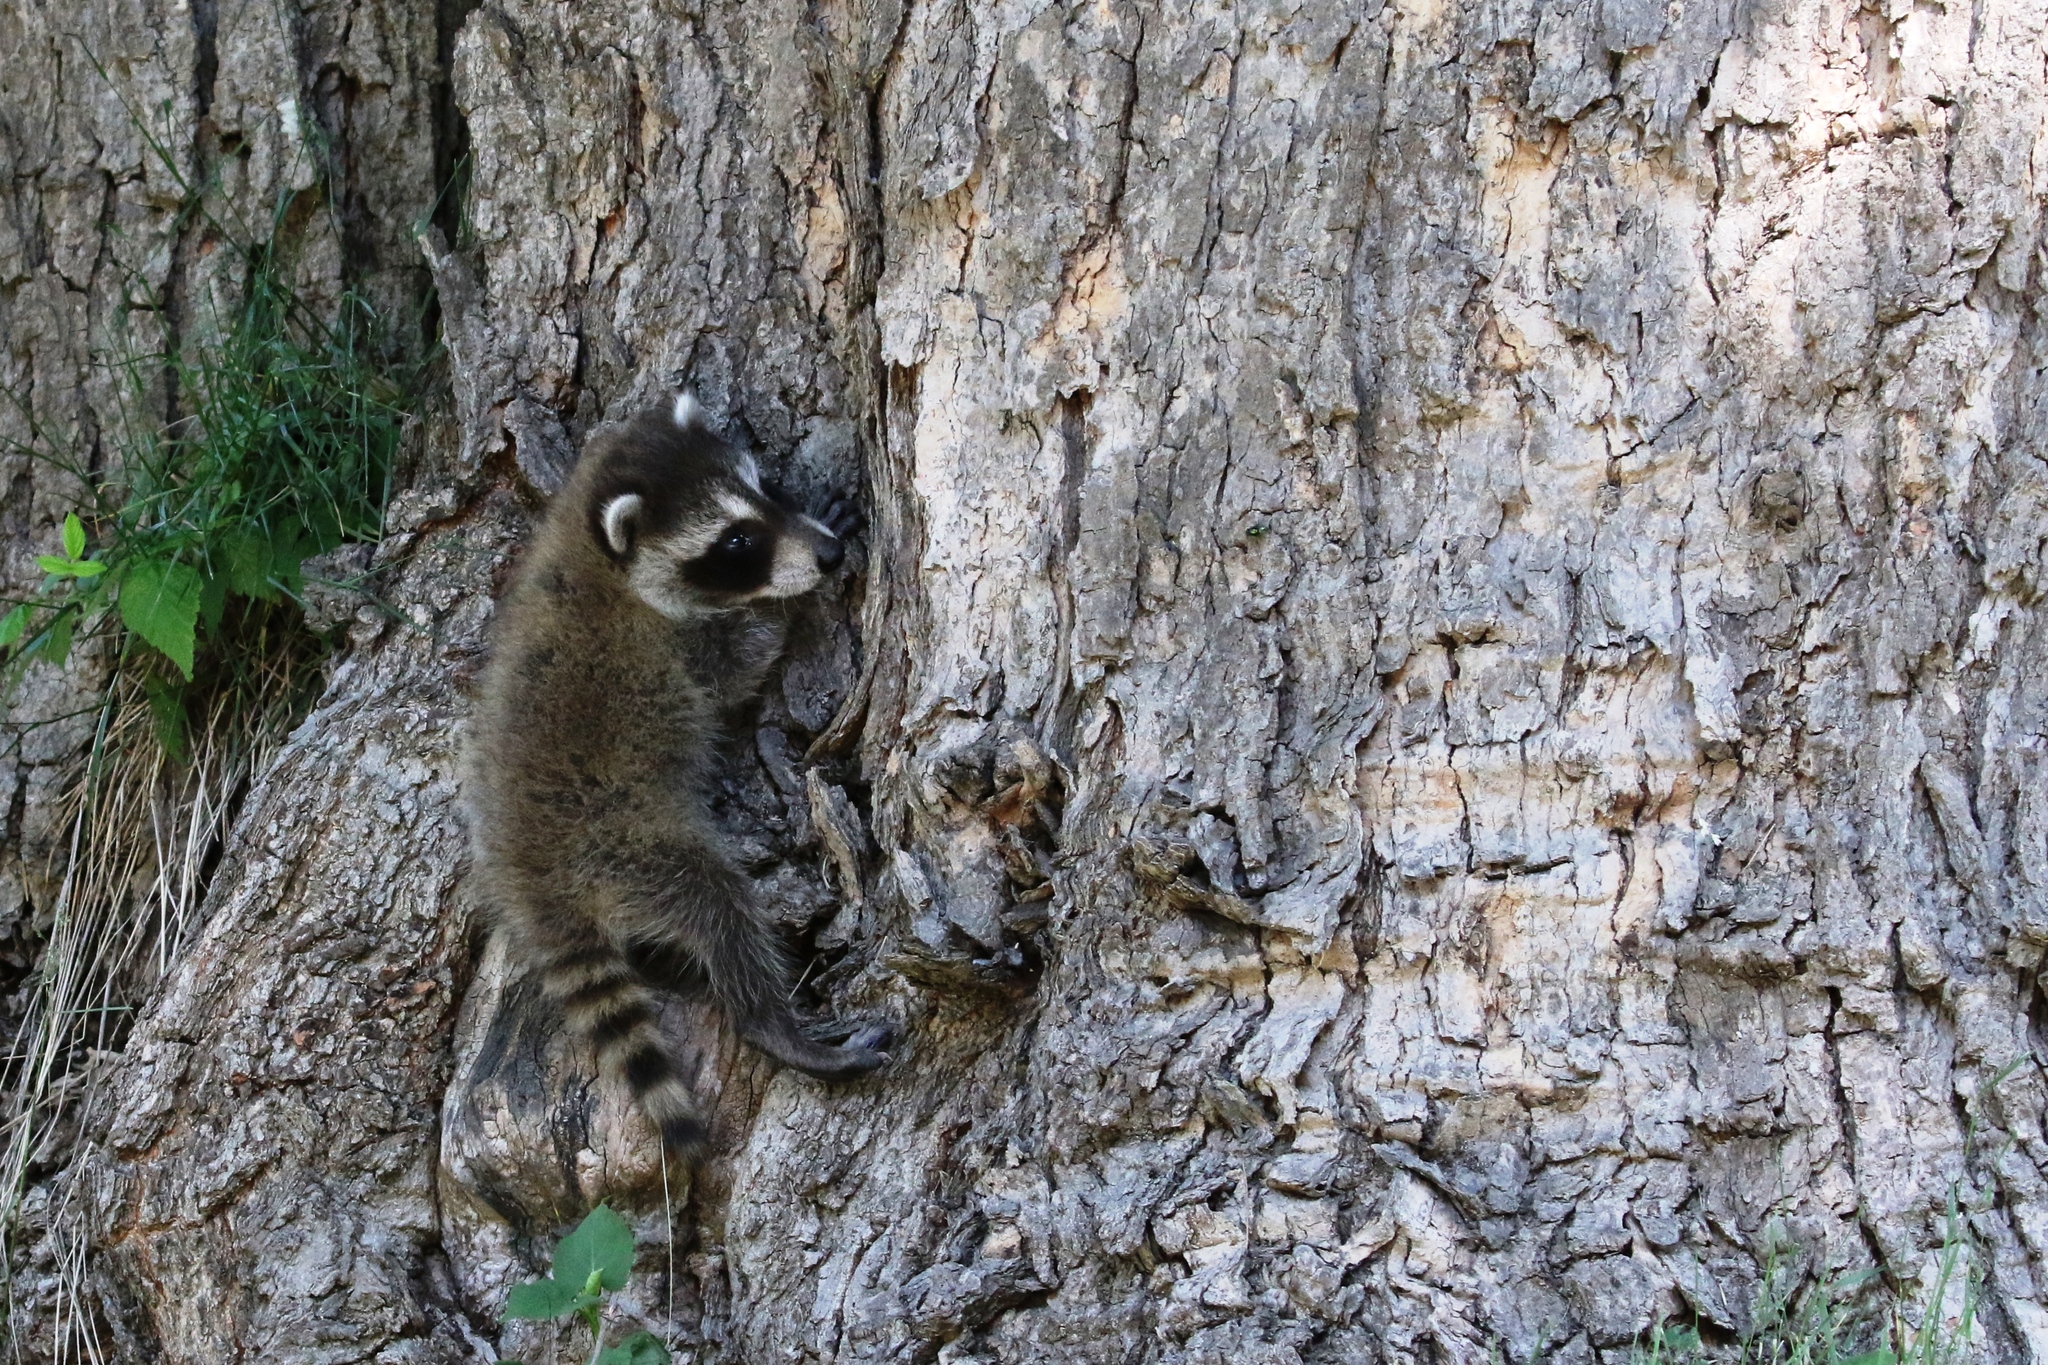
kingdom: Animalia
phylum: Chordata
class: Mammalia
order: Carnivora
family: Procyonidae
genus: Procyon
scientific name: Procyon lotor
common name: Raccoon
